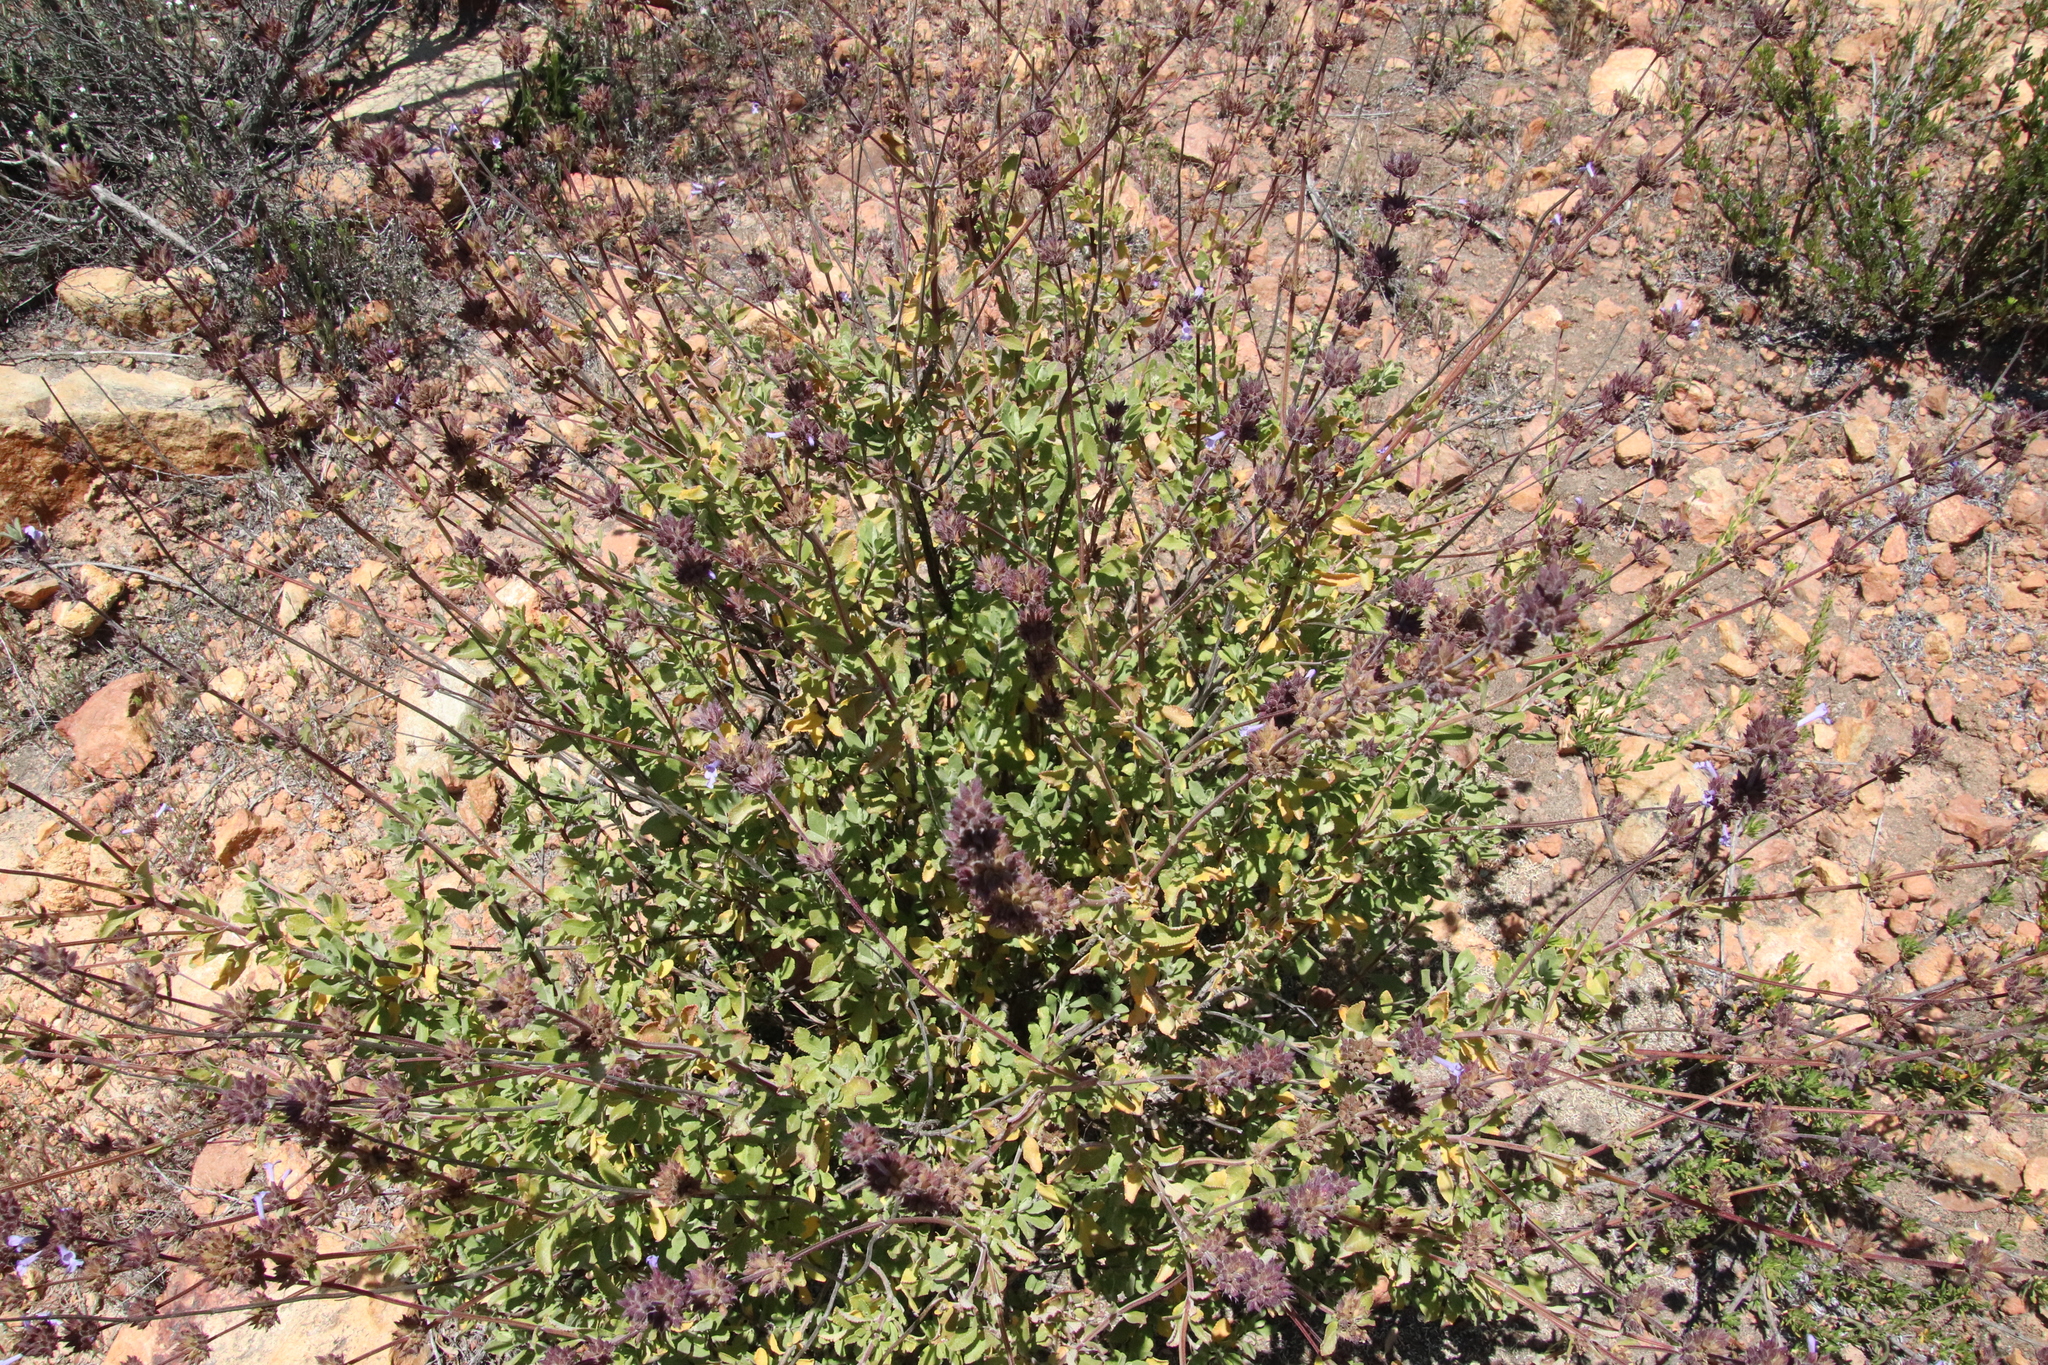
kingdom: Plantae
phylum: Tracheophyta
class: Magnoliopsida
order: Lamiales
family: Lamiaceae
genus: Salvia
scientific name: Salvia munzii
